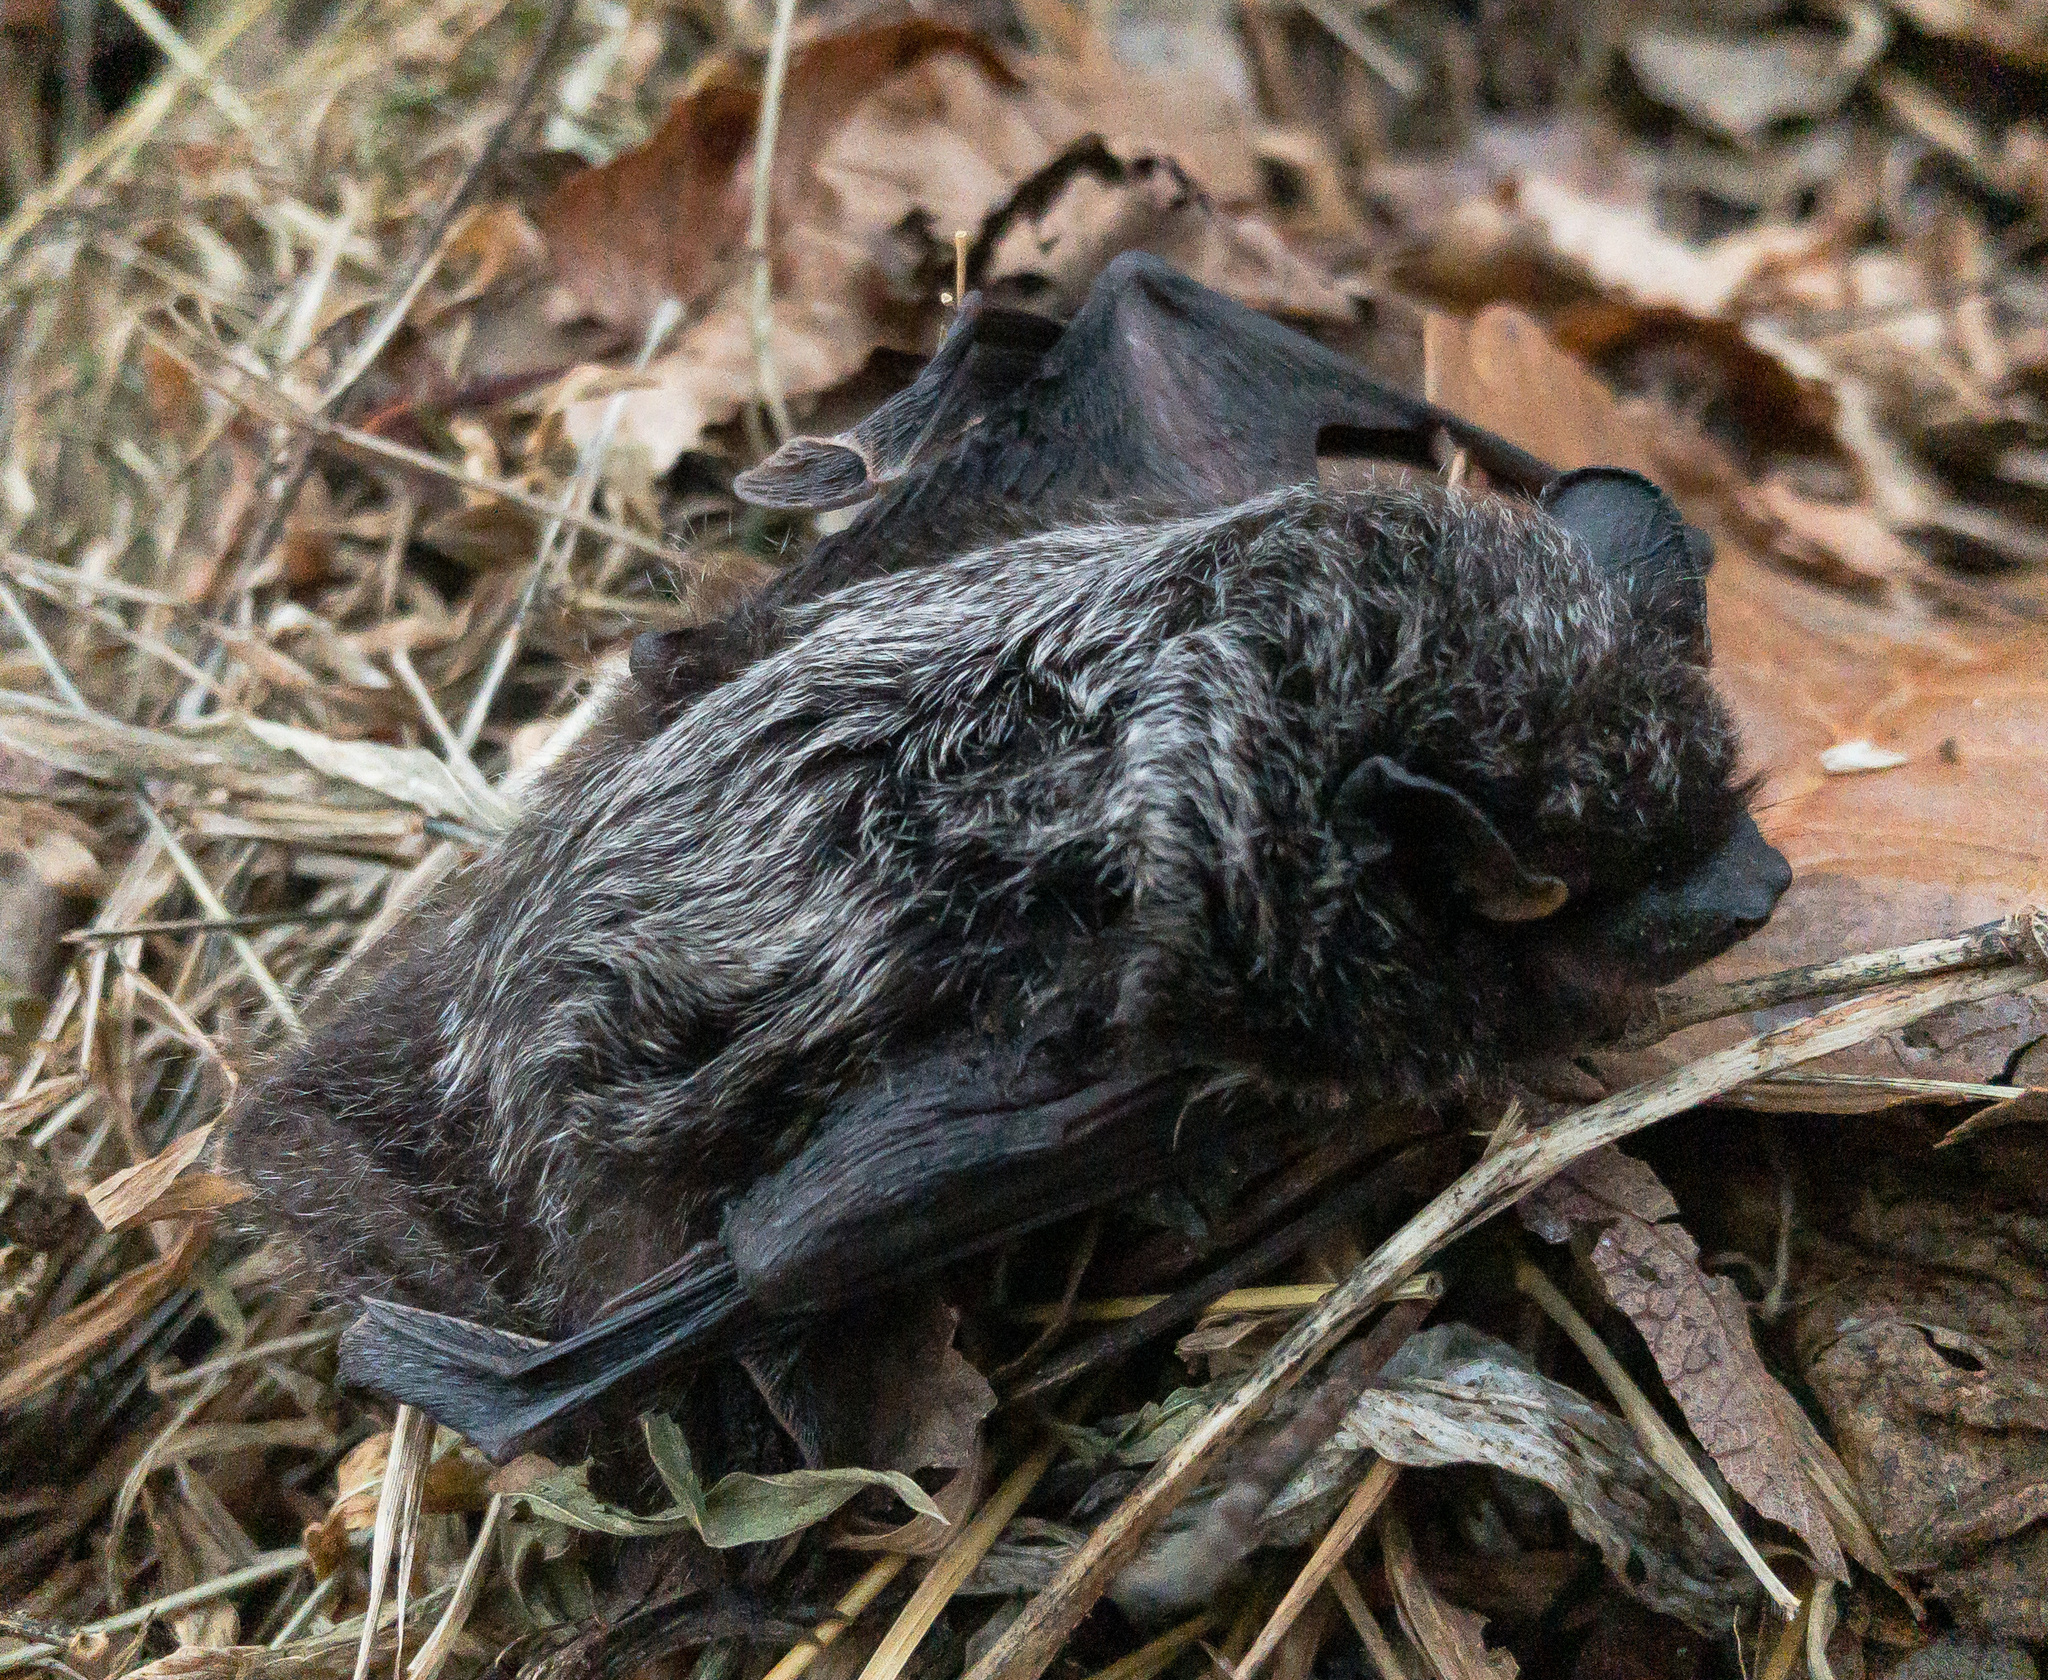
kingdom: Animalia
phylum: Chordata
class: Mammalia
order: Chiroptera
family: Vespertilionidae
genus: Lasionycteris
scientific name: Lasionycteris noctivagans
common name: Silver-haired bat
